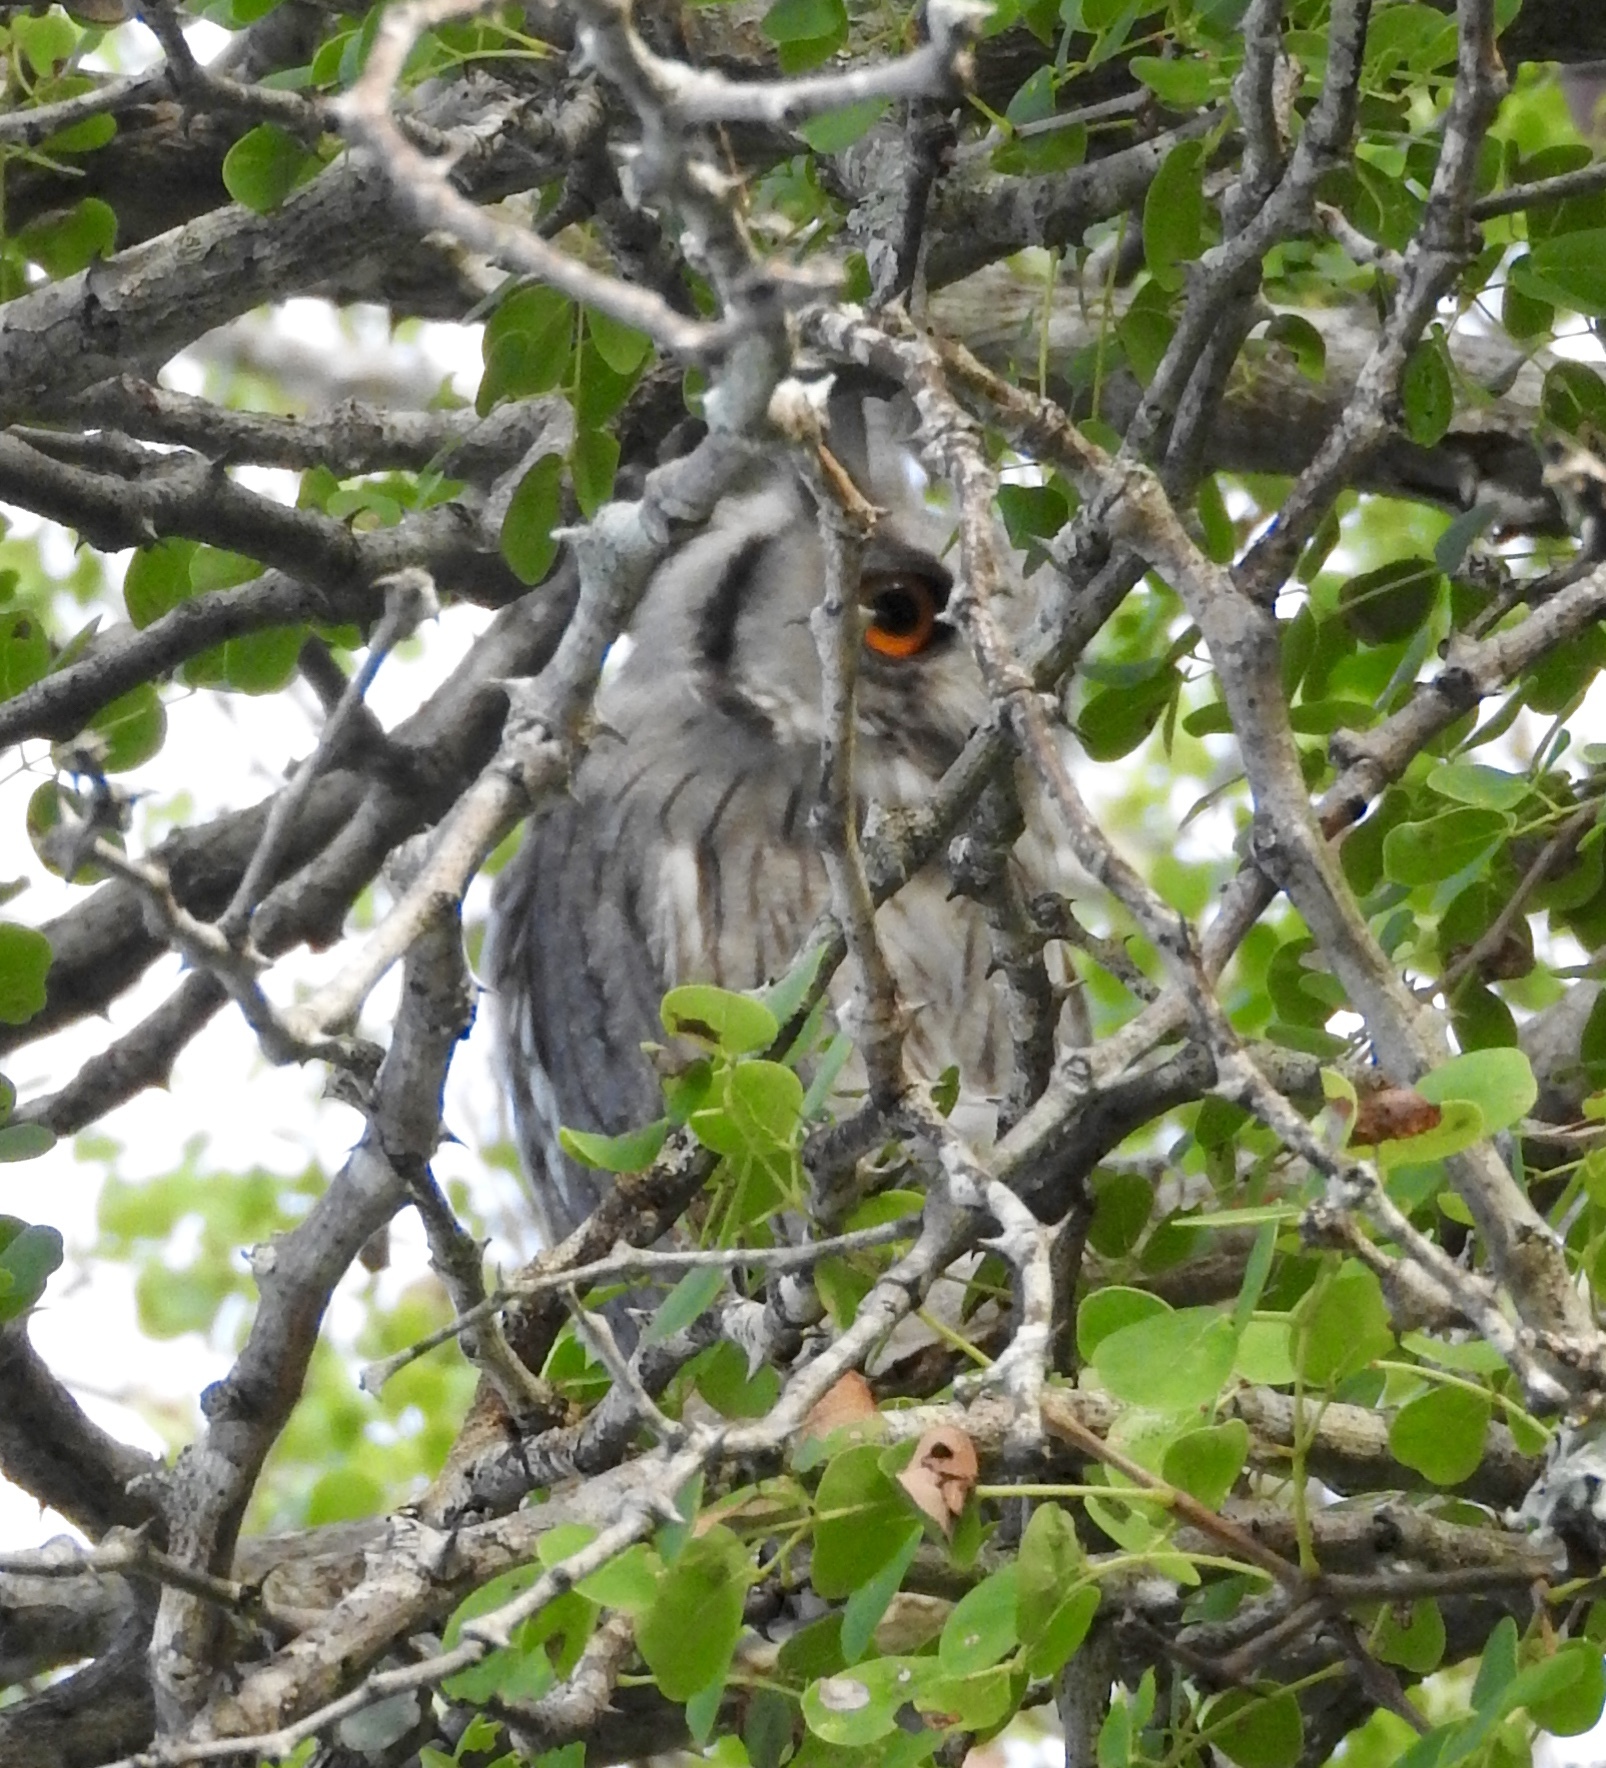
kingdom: Animalia
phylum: Chordata
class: Aves
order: Strigiformes
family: Strigidae
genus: Ptilopsis
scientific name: Ptilopsis granti
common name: Southern white-faced owl
